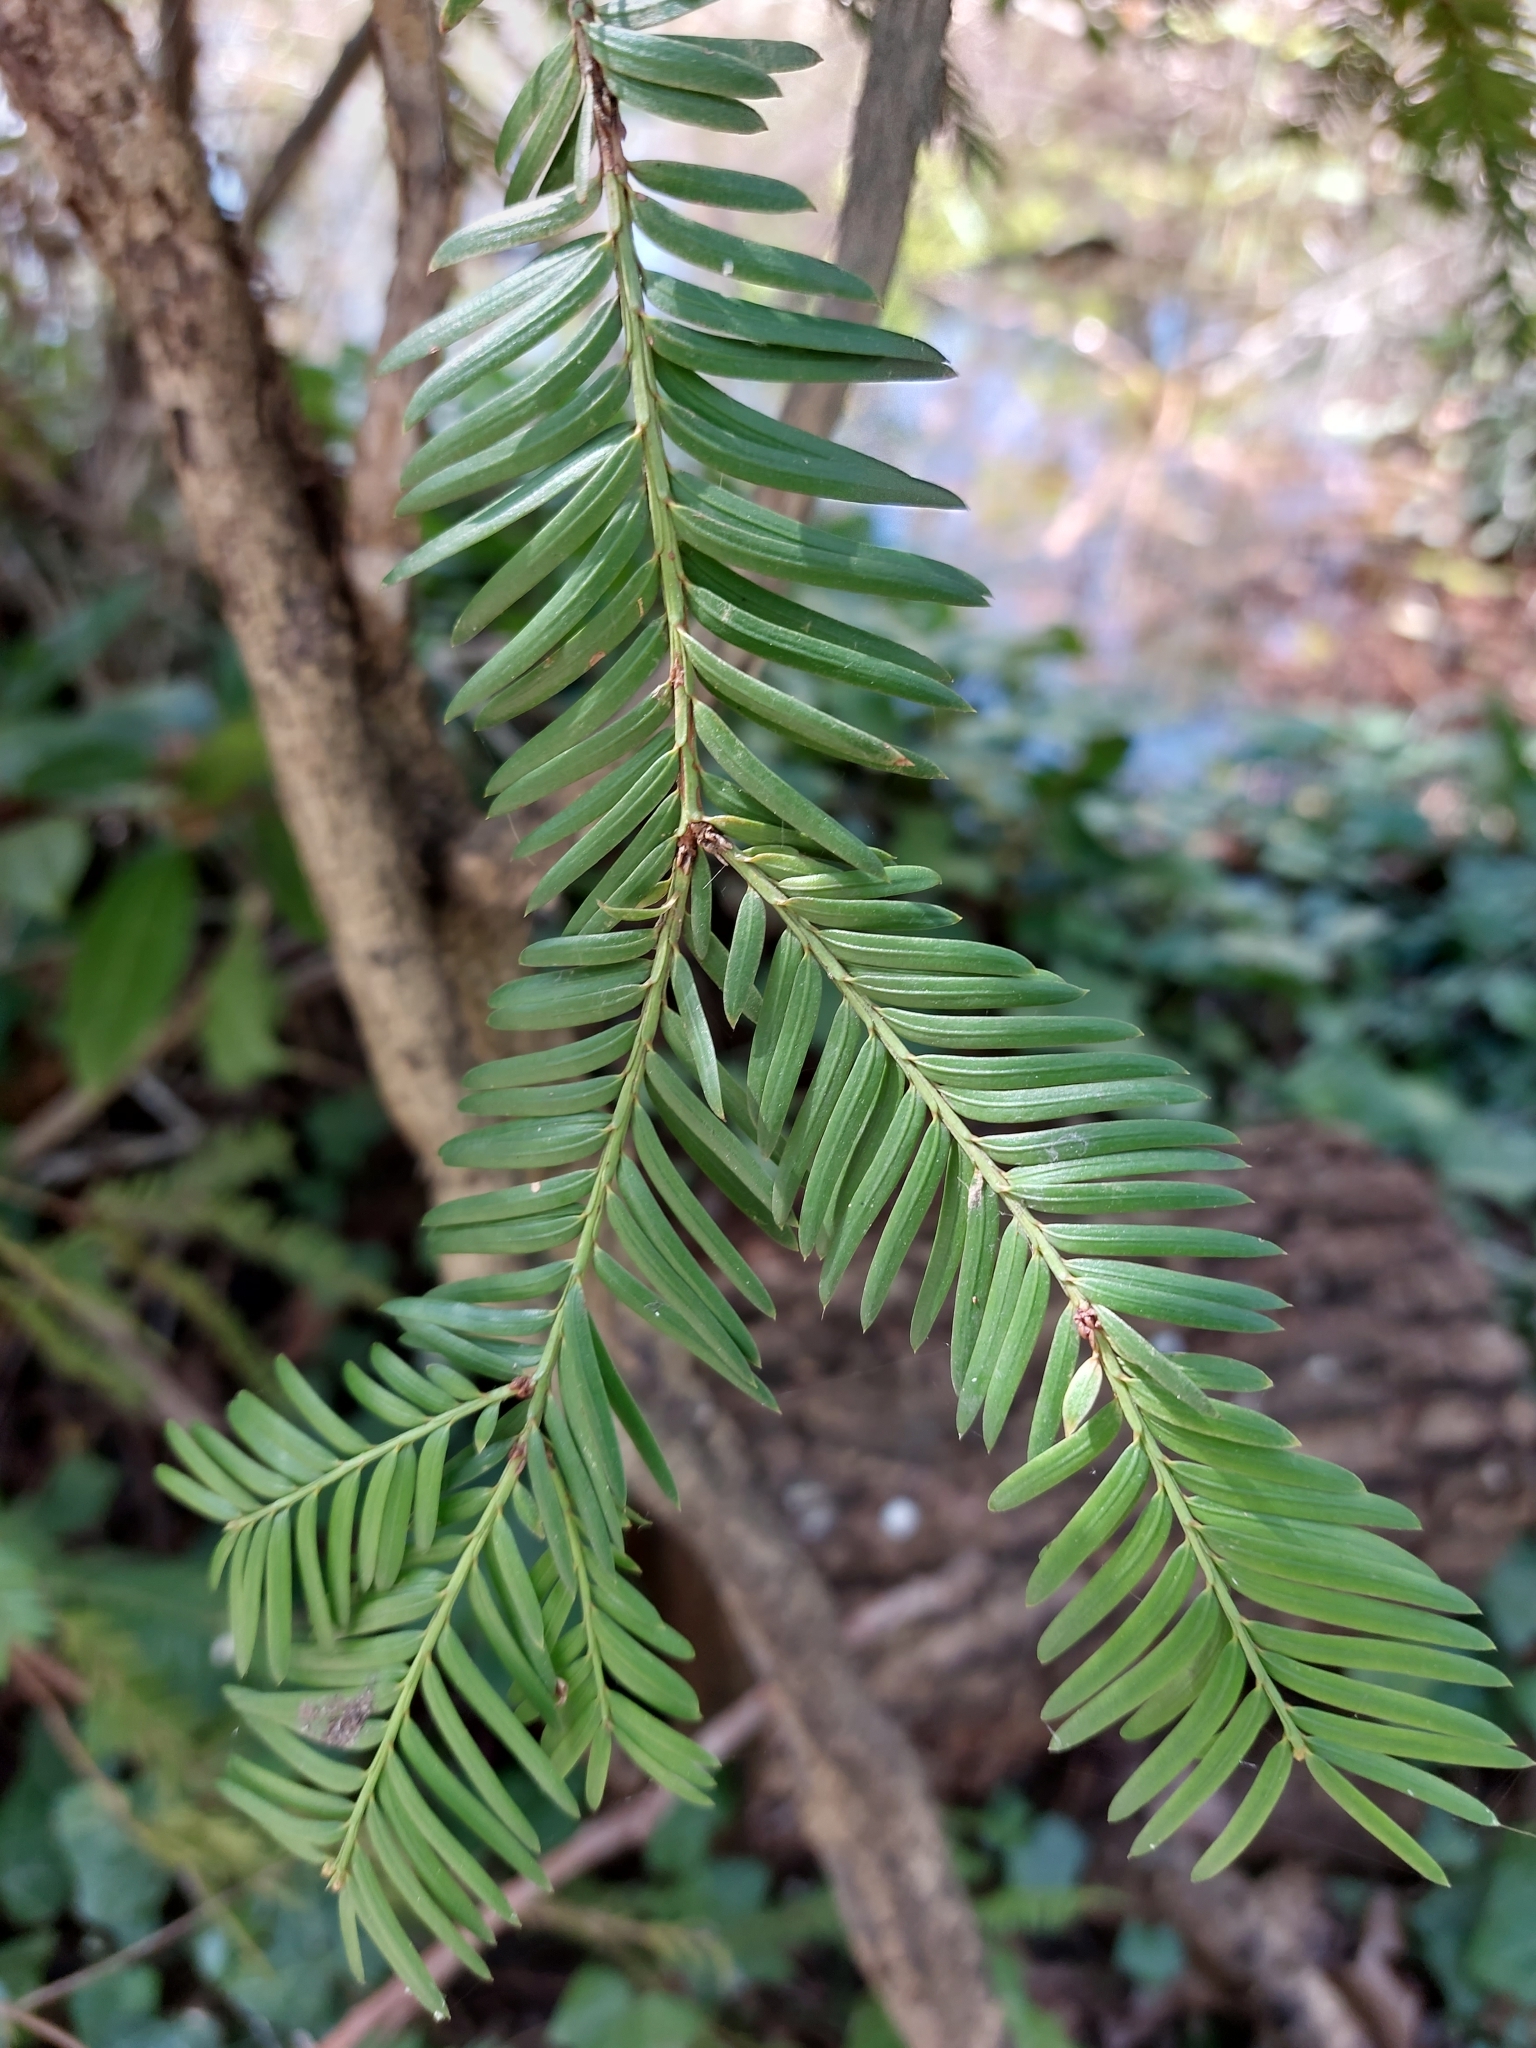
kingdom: Plantae
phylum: Tracheophyta
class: Pinopsida
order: Pinales
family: Taxaceae
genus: Taxus
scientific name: Taxus baccata
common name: Yew
